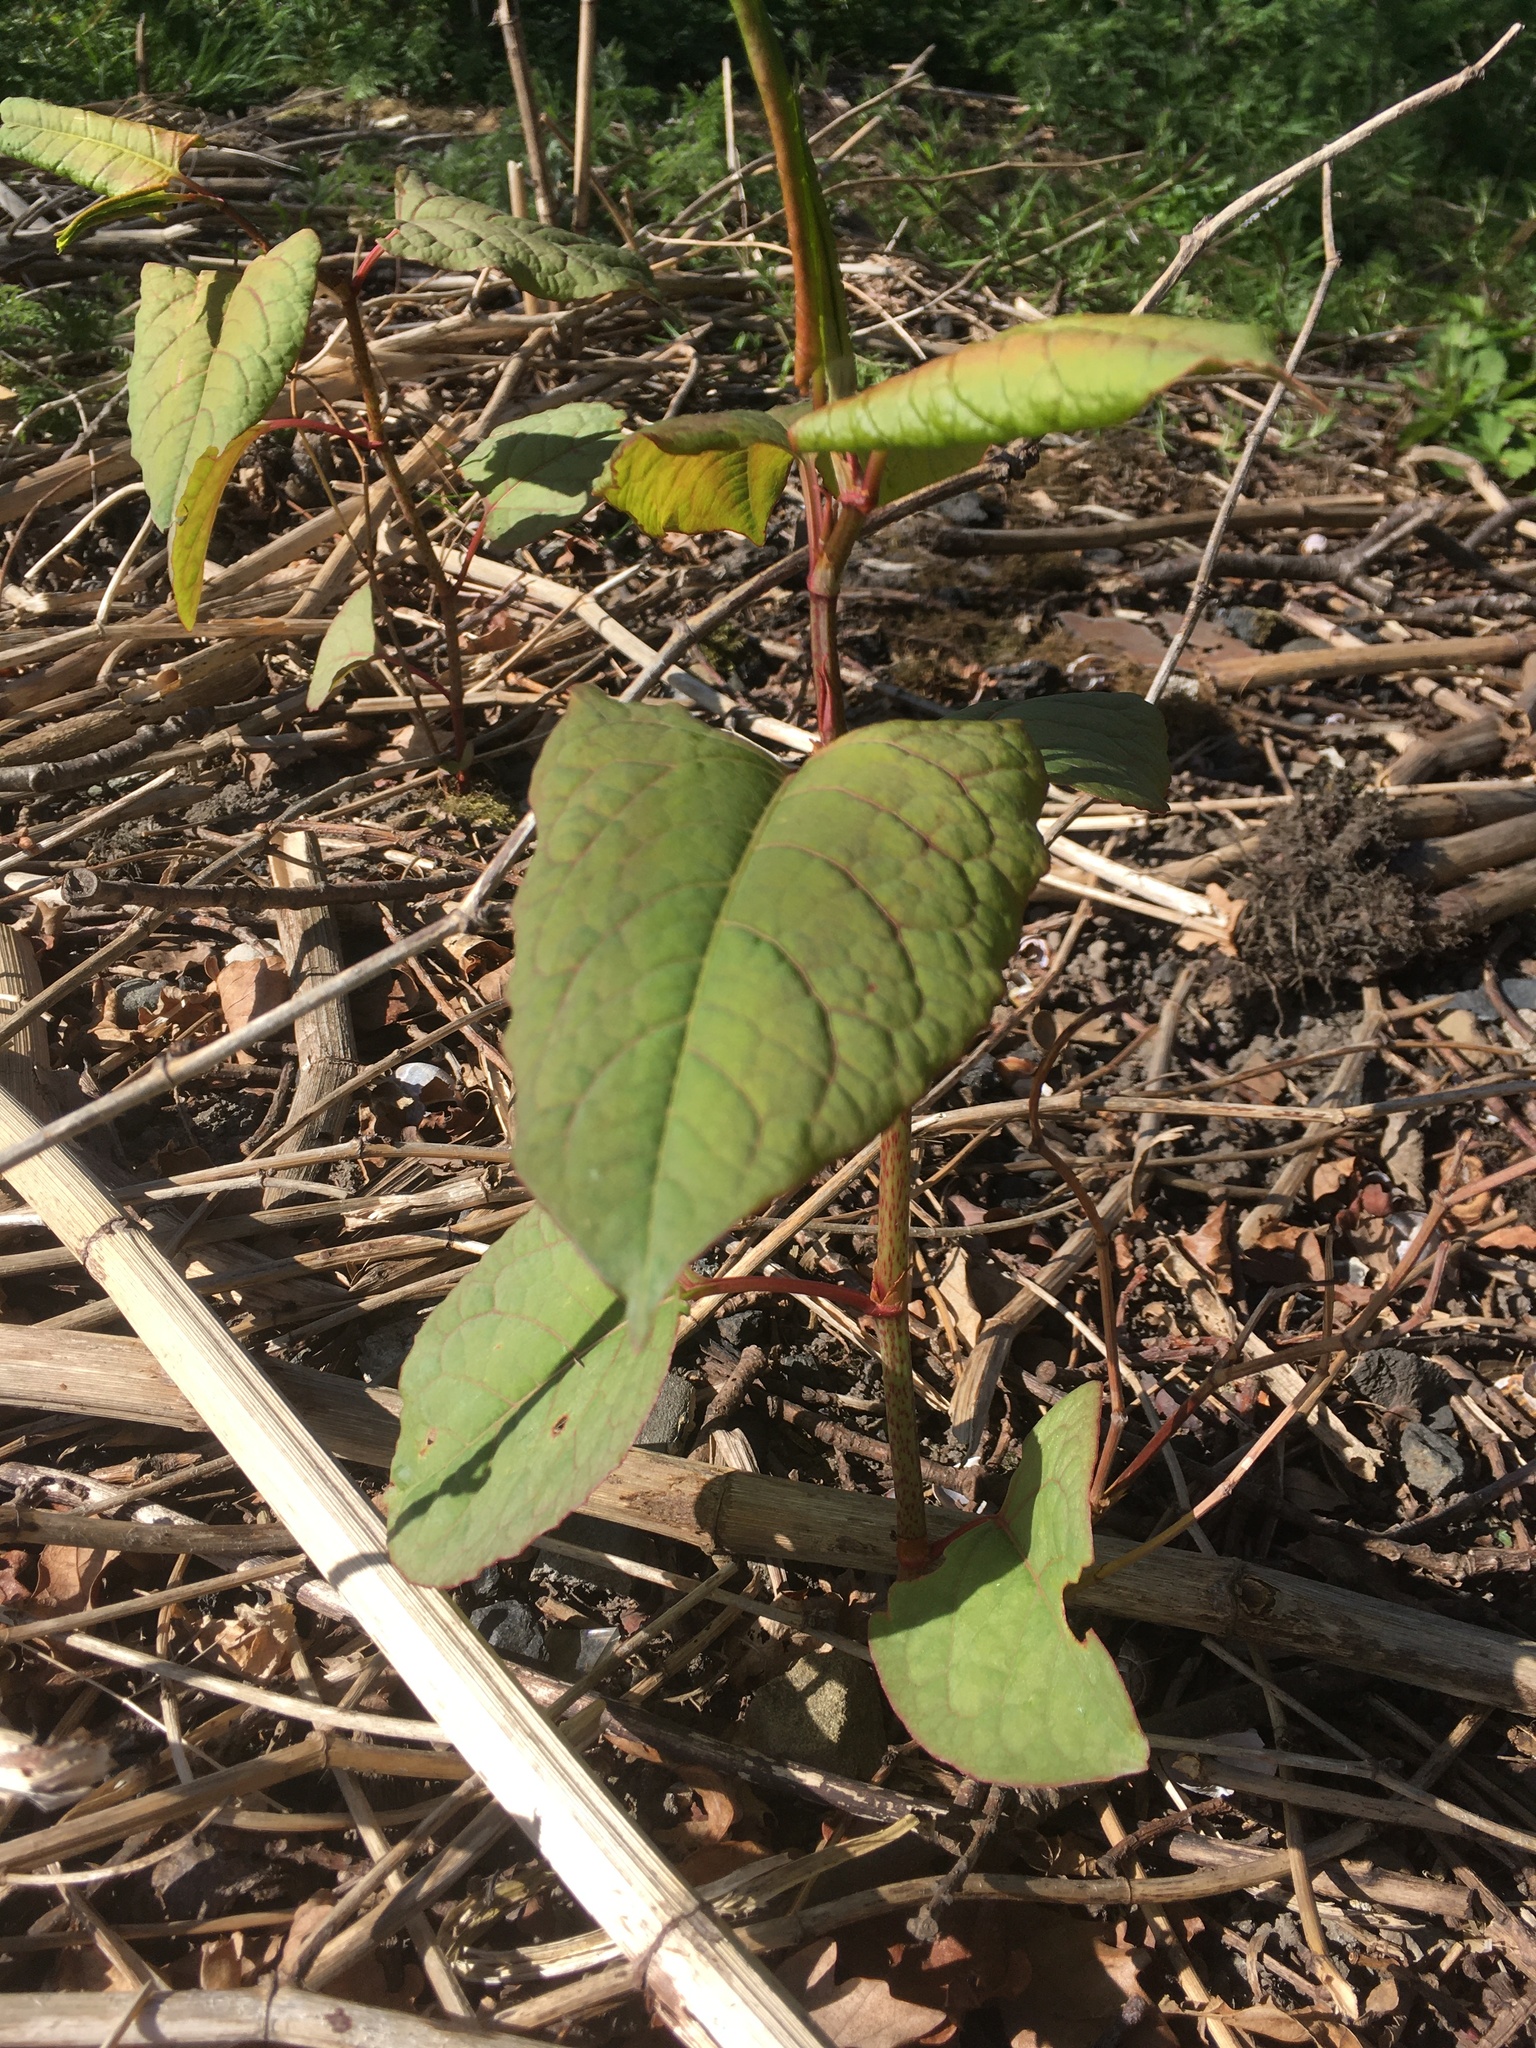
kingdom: Plantae
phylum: Tracheophyta
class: Magnoliopsida
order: Caryophyllales
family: Polygonaceae
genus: Reynoutria
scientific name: Reynoutria japonica
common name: Japanese knotweed
